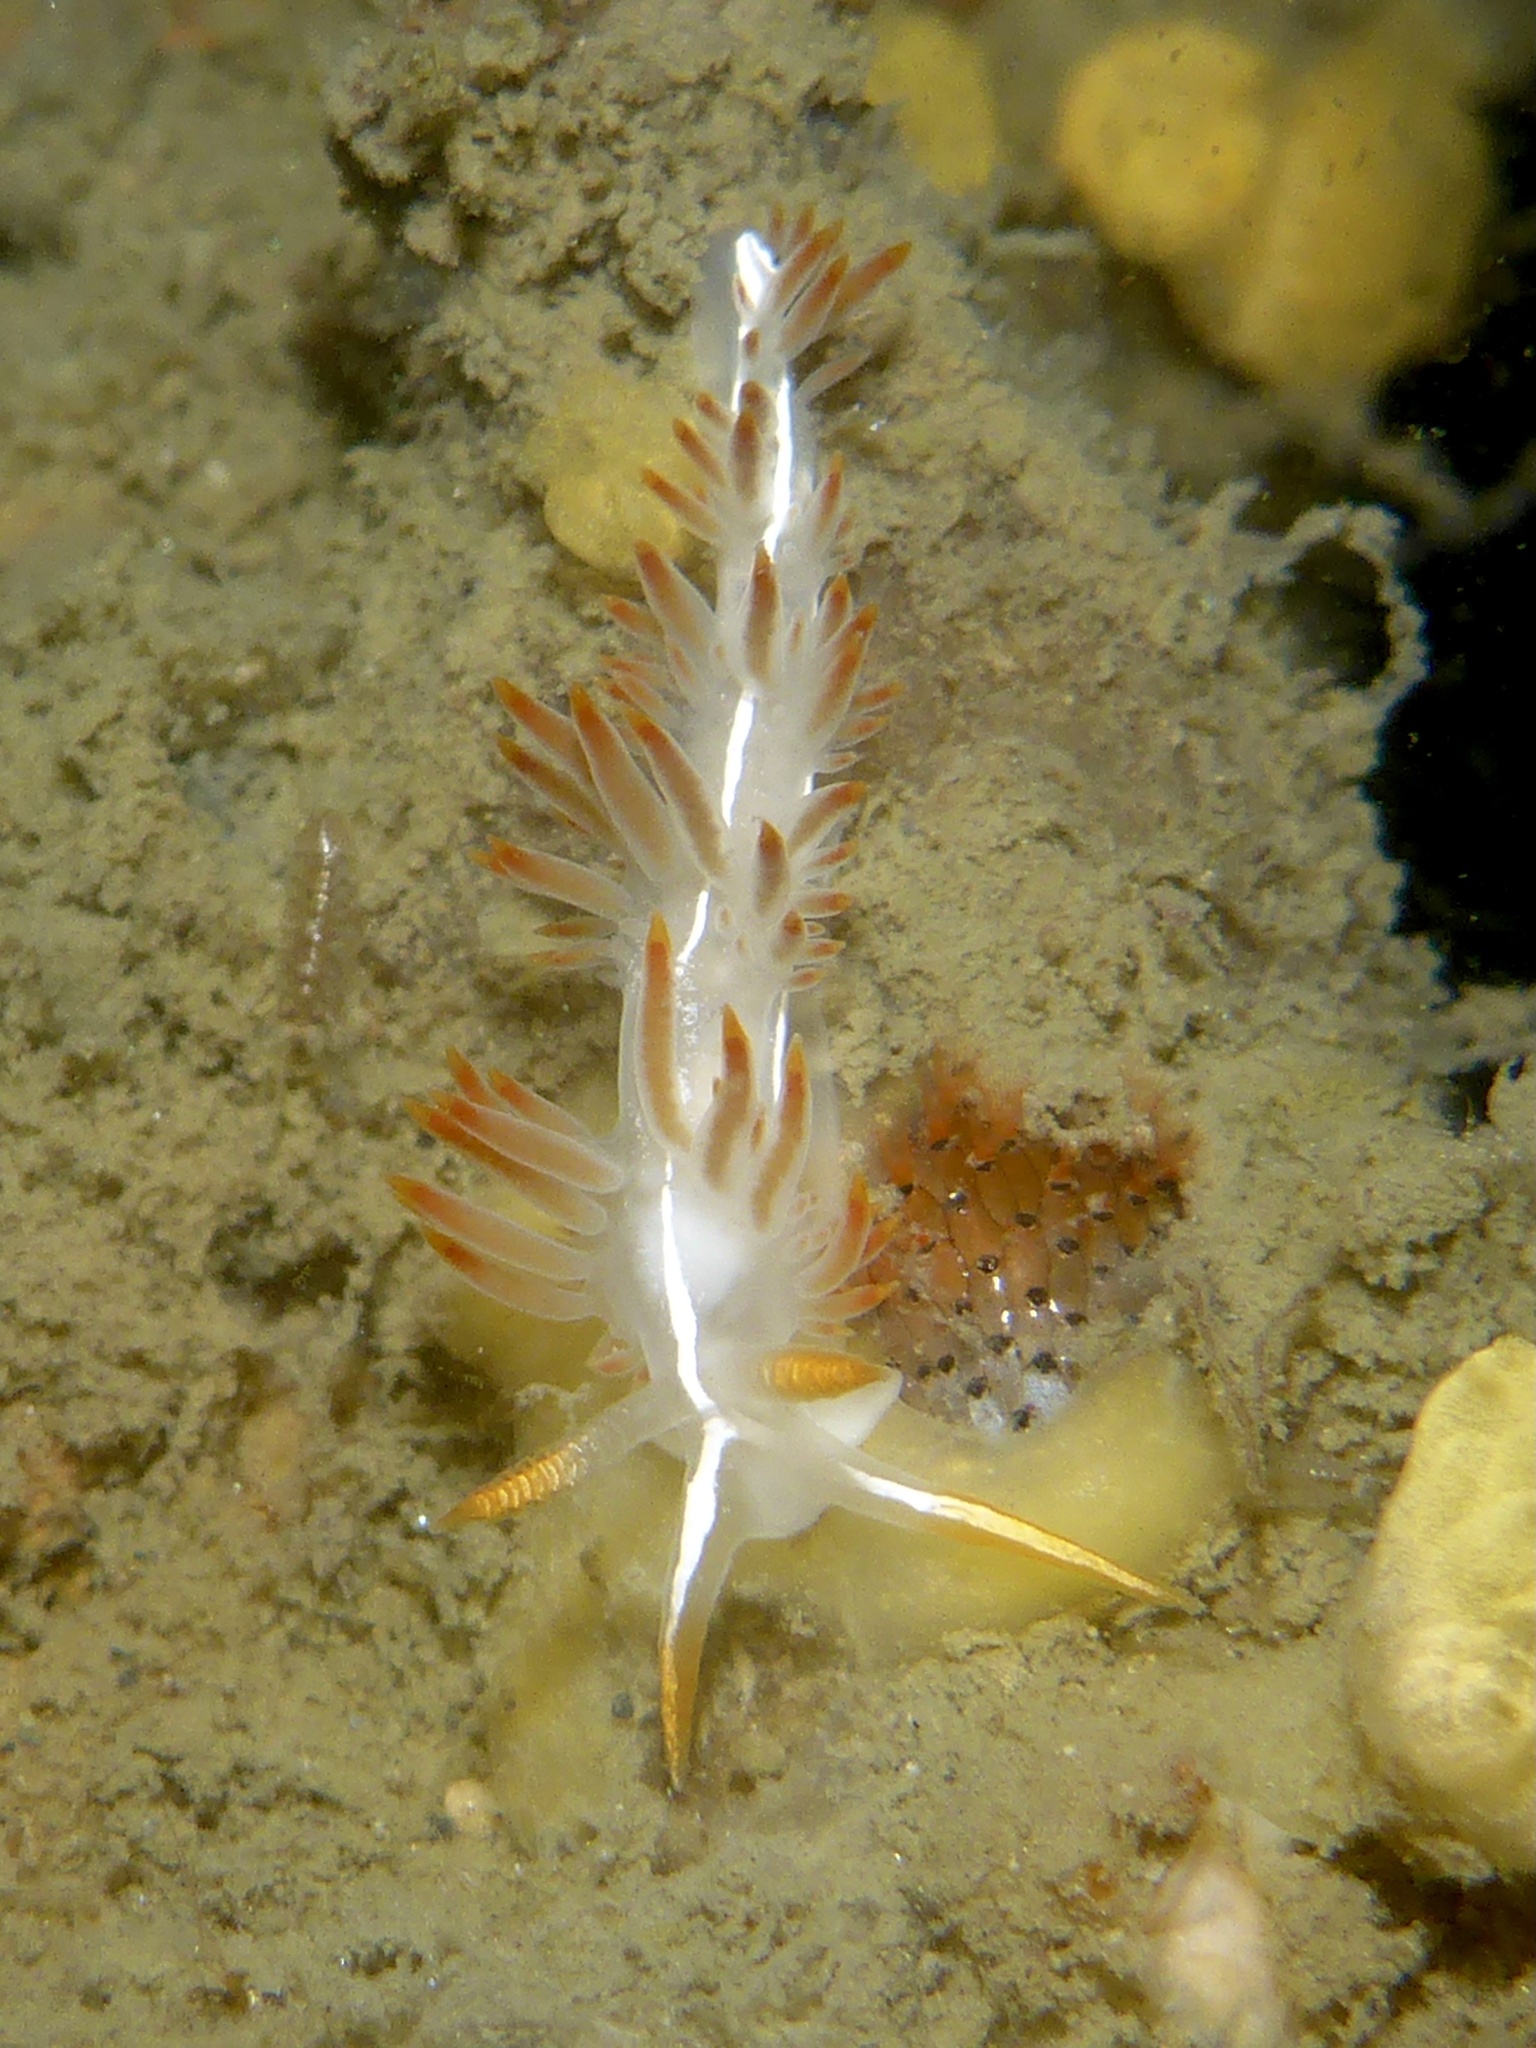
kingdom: Animalia
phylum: Mollusca
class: Gastropoda
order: Nudibranchia
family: Coryphellidae
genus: Coryphella
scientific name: Coryphella trilineata
